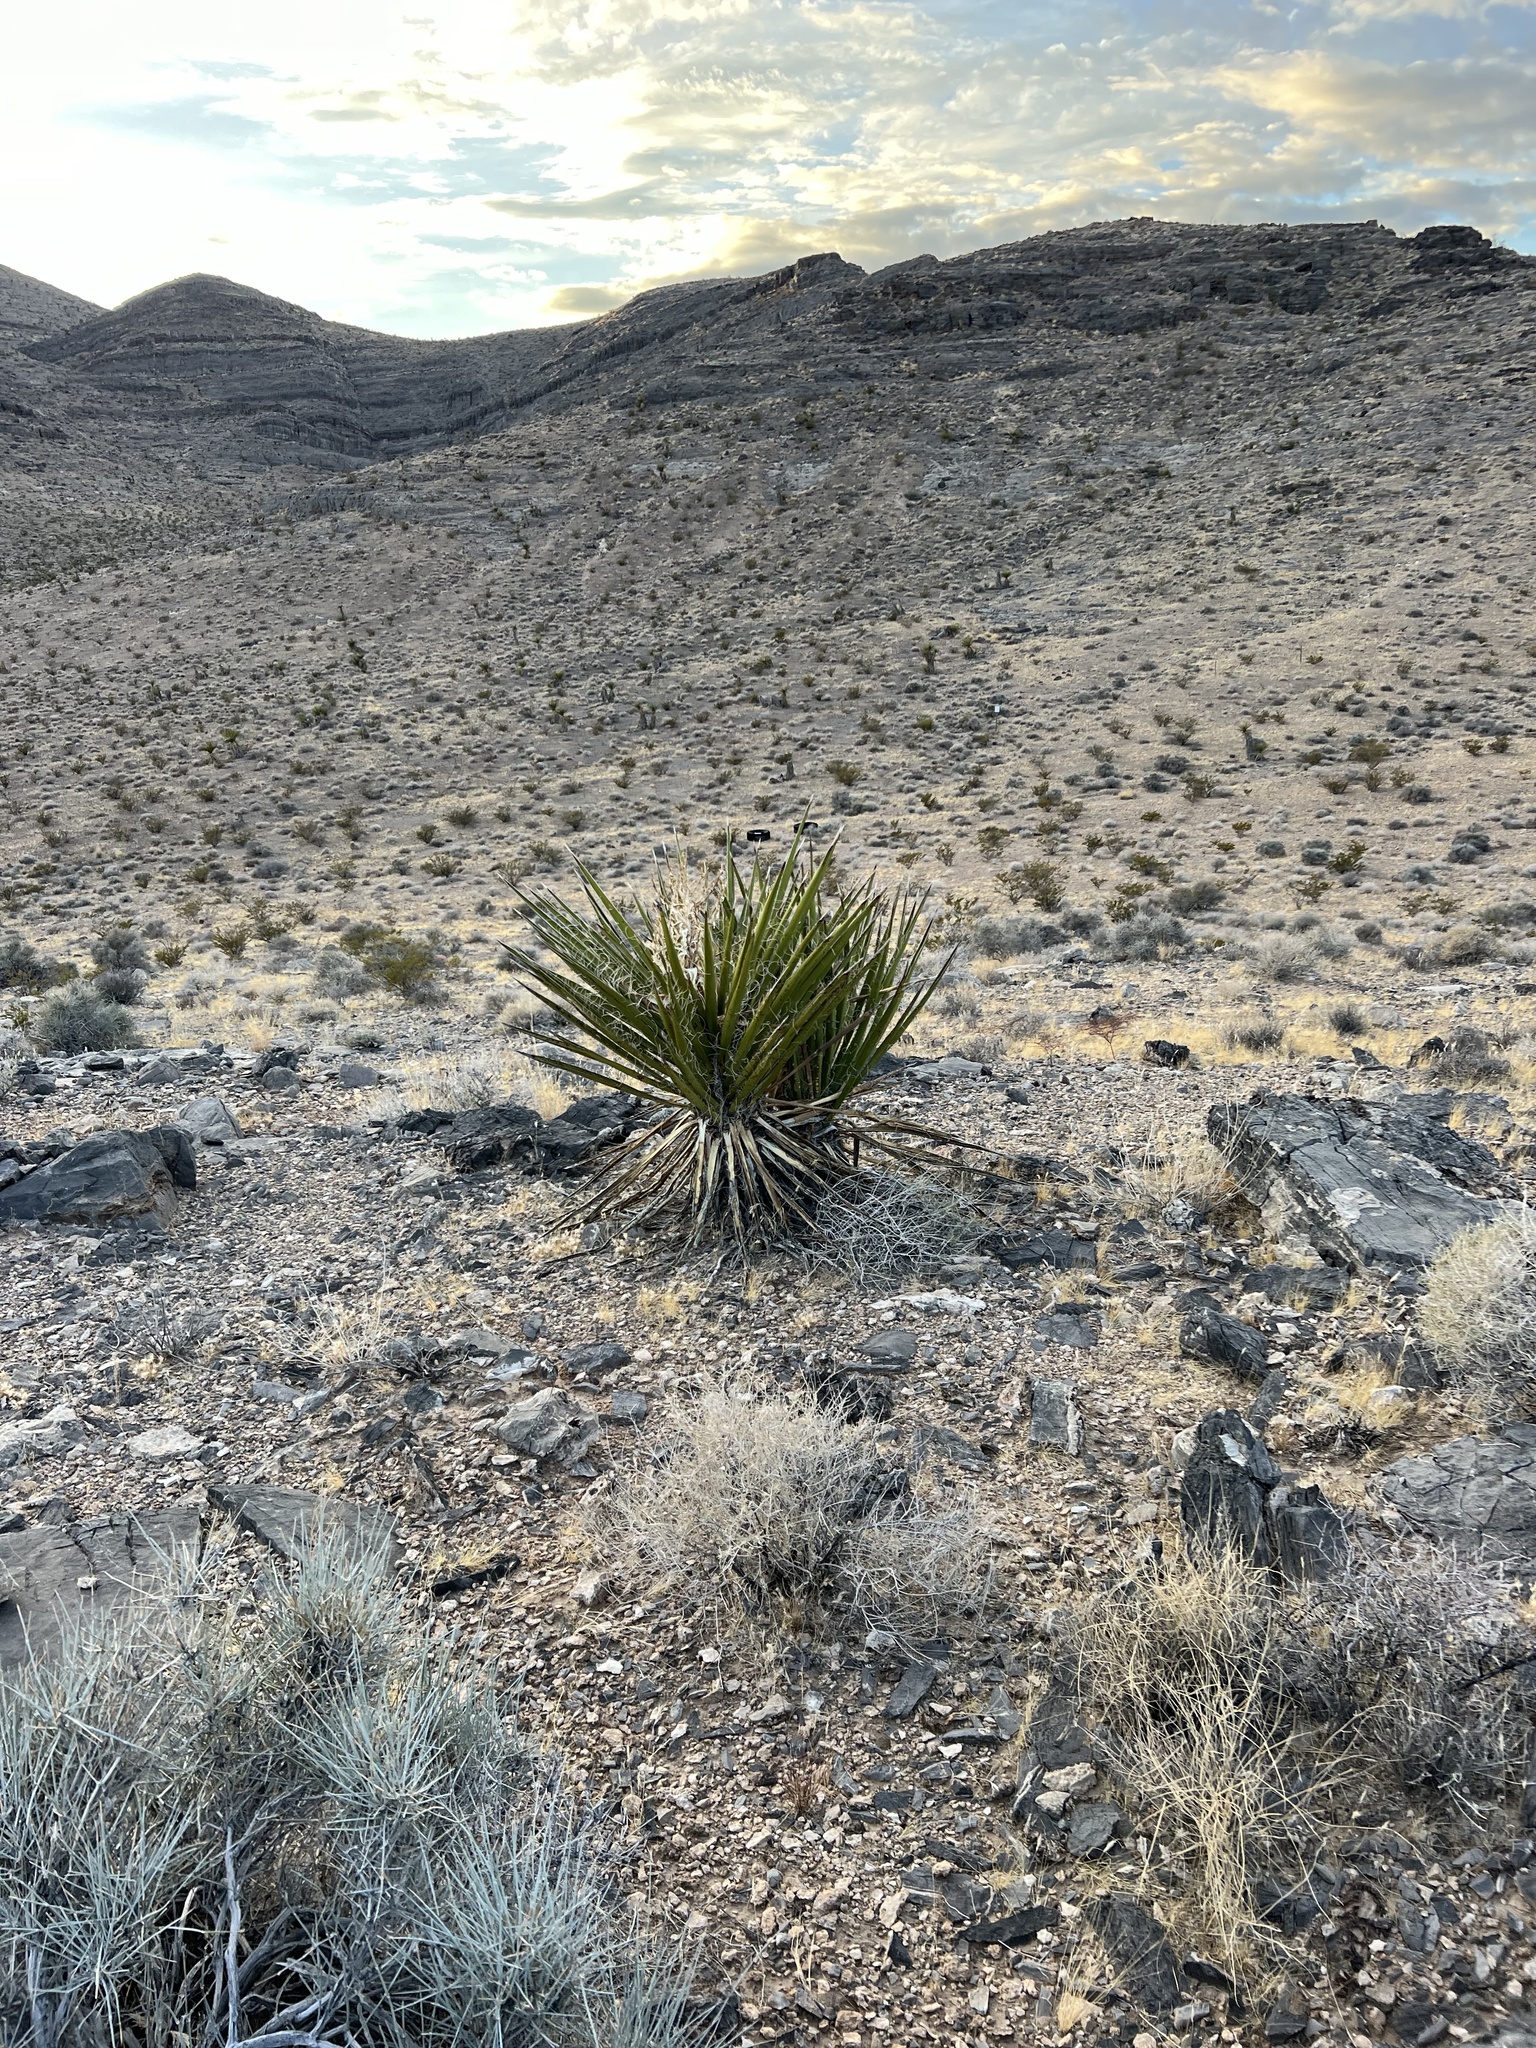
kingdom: Plantae
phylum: Tracheophyta
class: Liliopsida
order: Asparagales
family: Asparagaceae
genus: Yucca
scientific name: Yucca schidigera
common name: Mojave yucca
